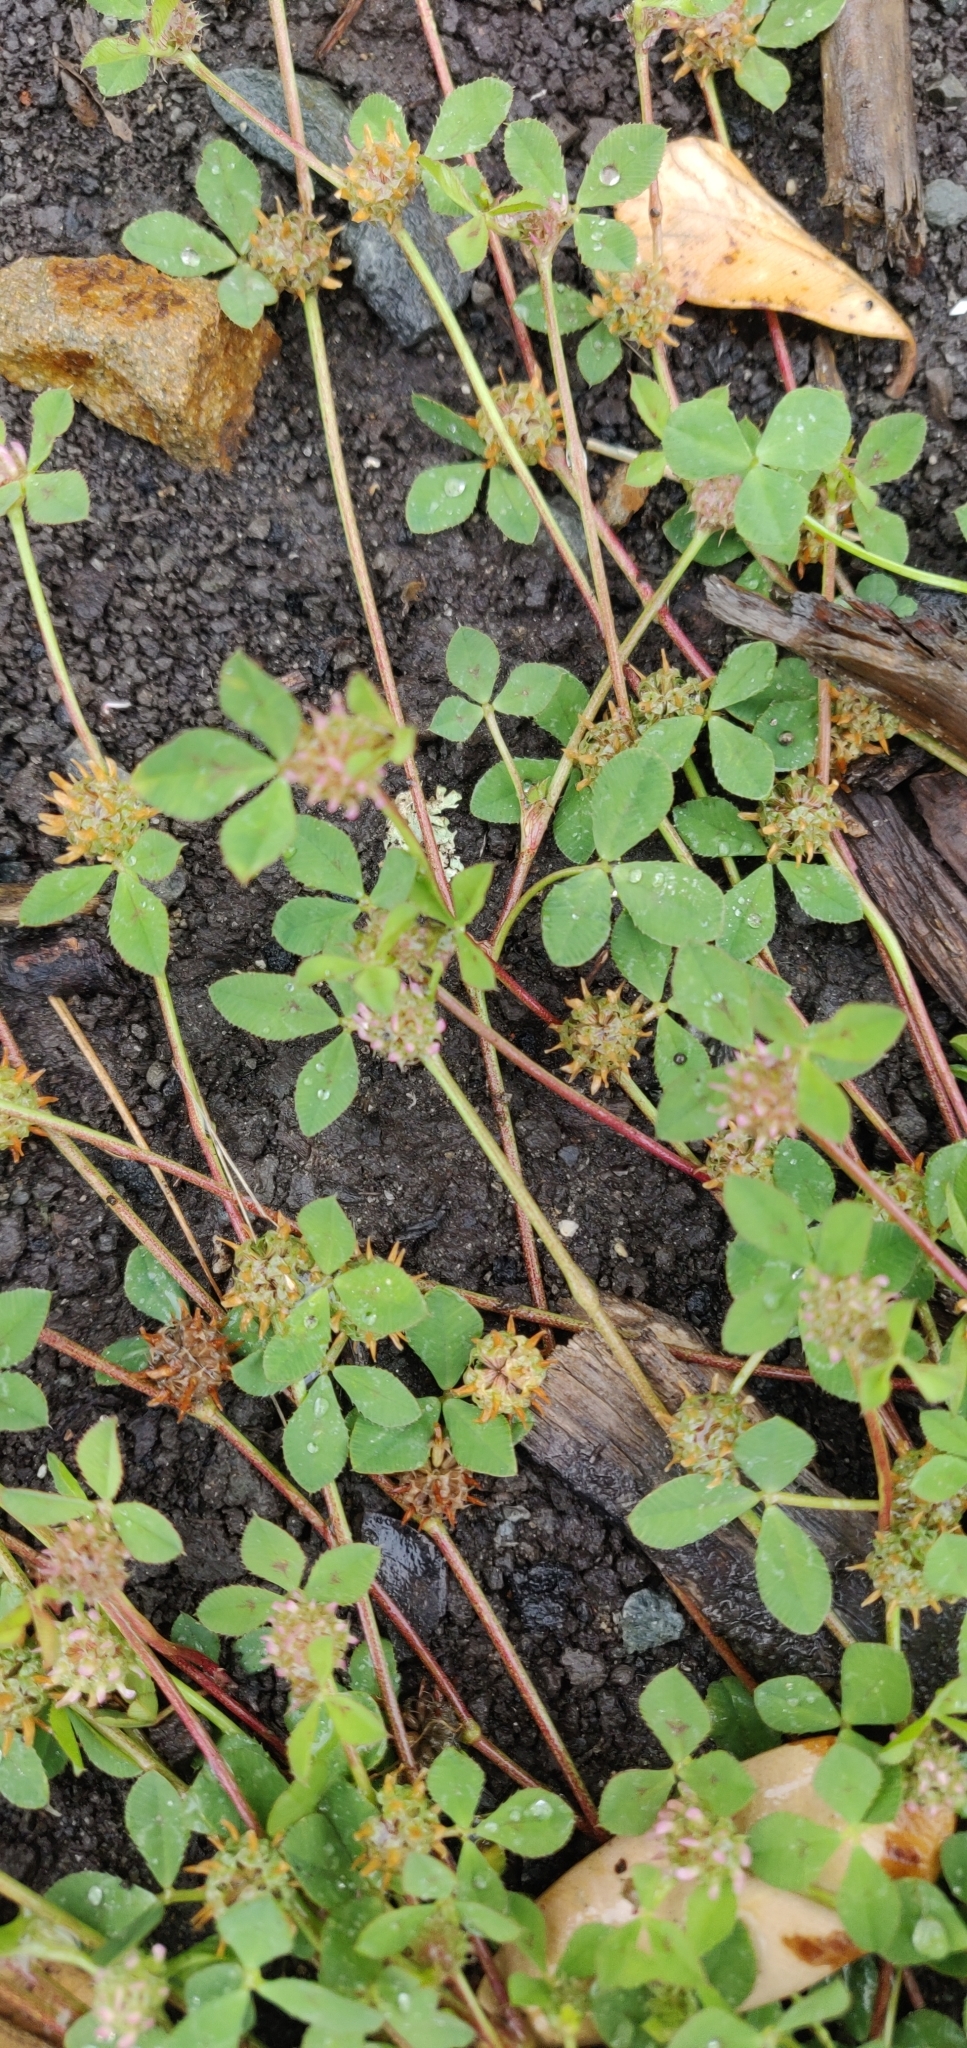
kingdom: Plantae
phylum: Tracheophyta
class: Magnoliopsida
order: Fabales
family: Fabaceae
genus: Trifolium
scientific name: Trifolium glomeratum
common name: Clustered clover
